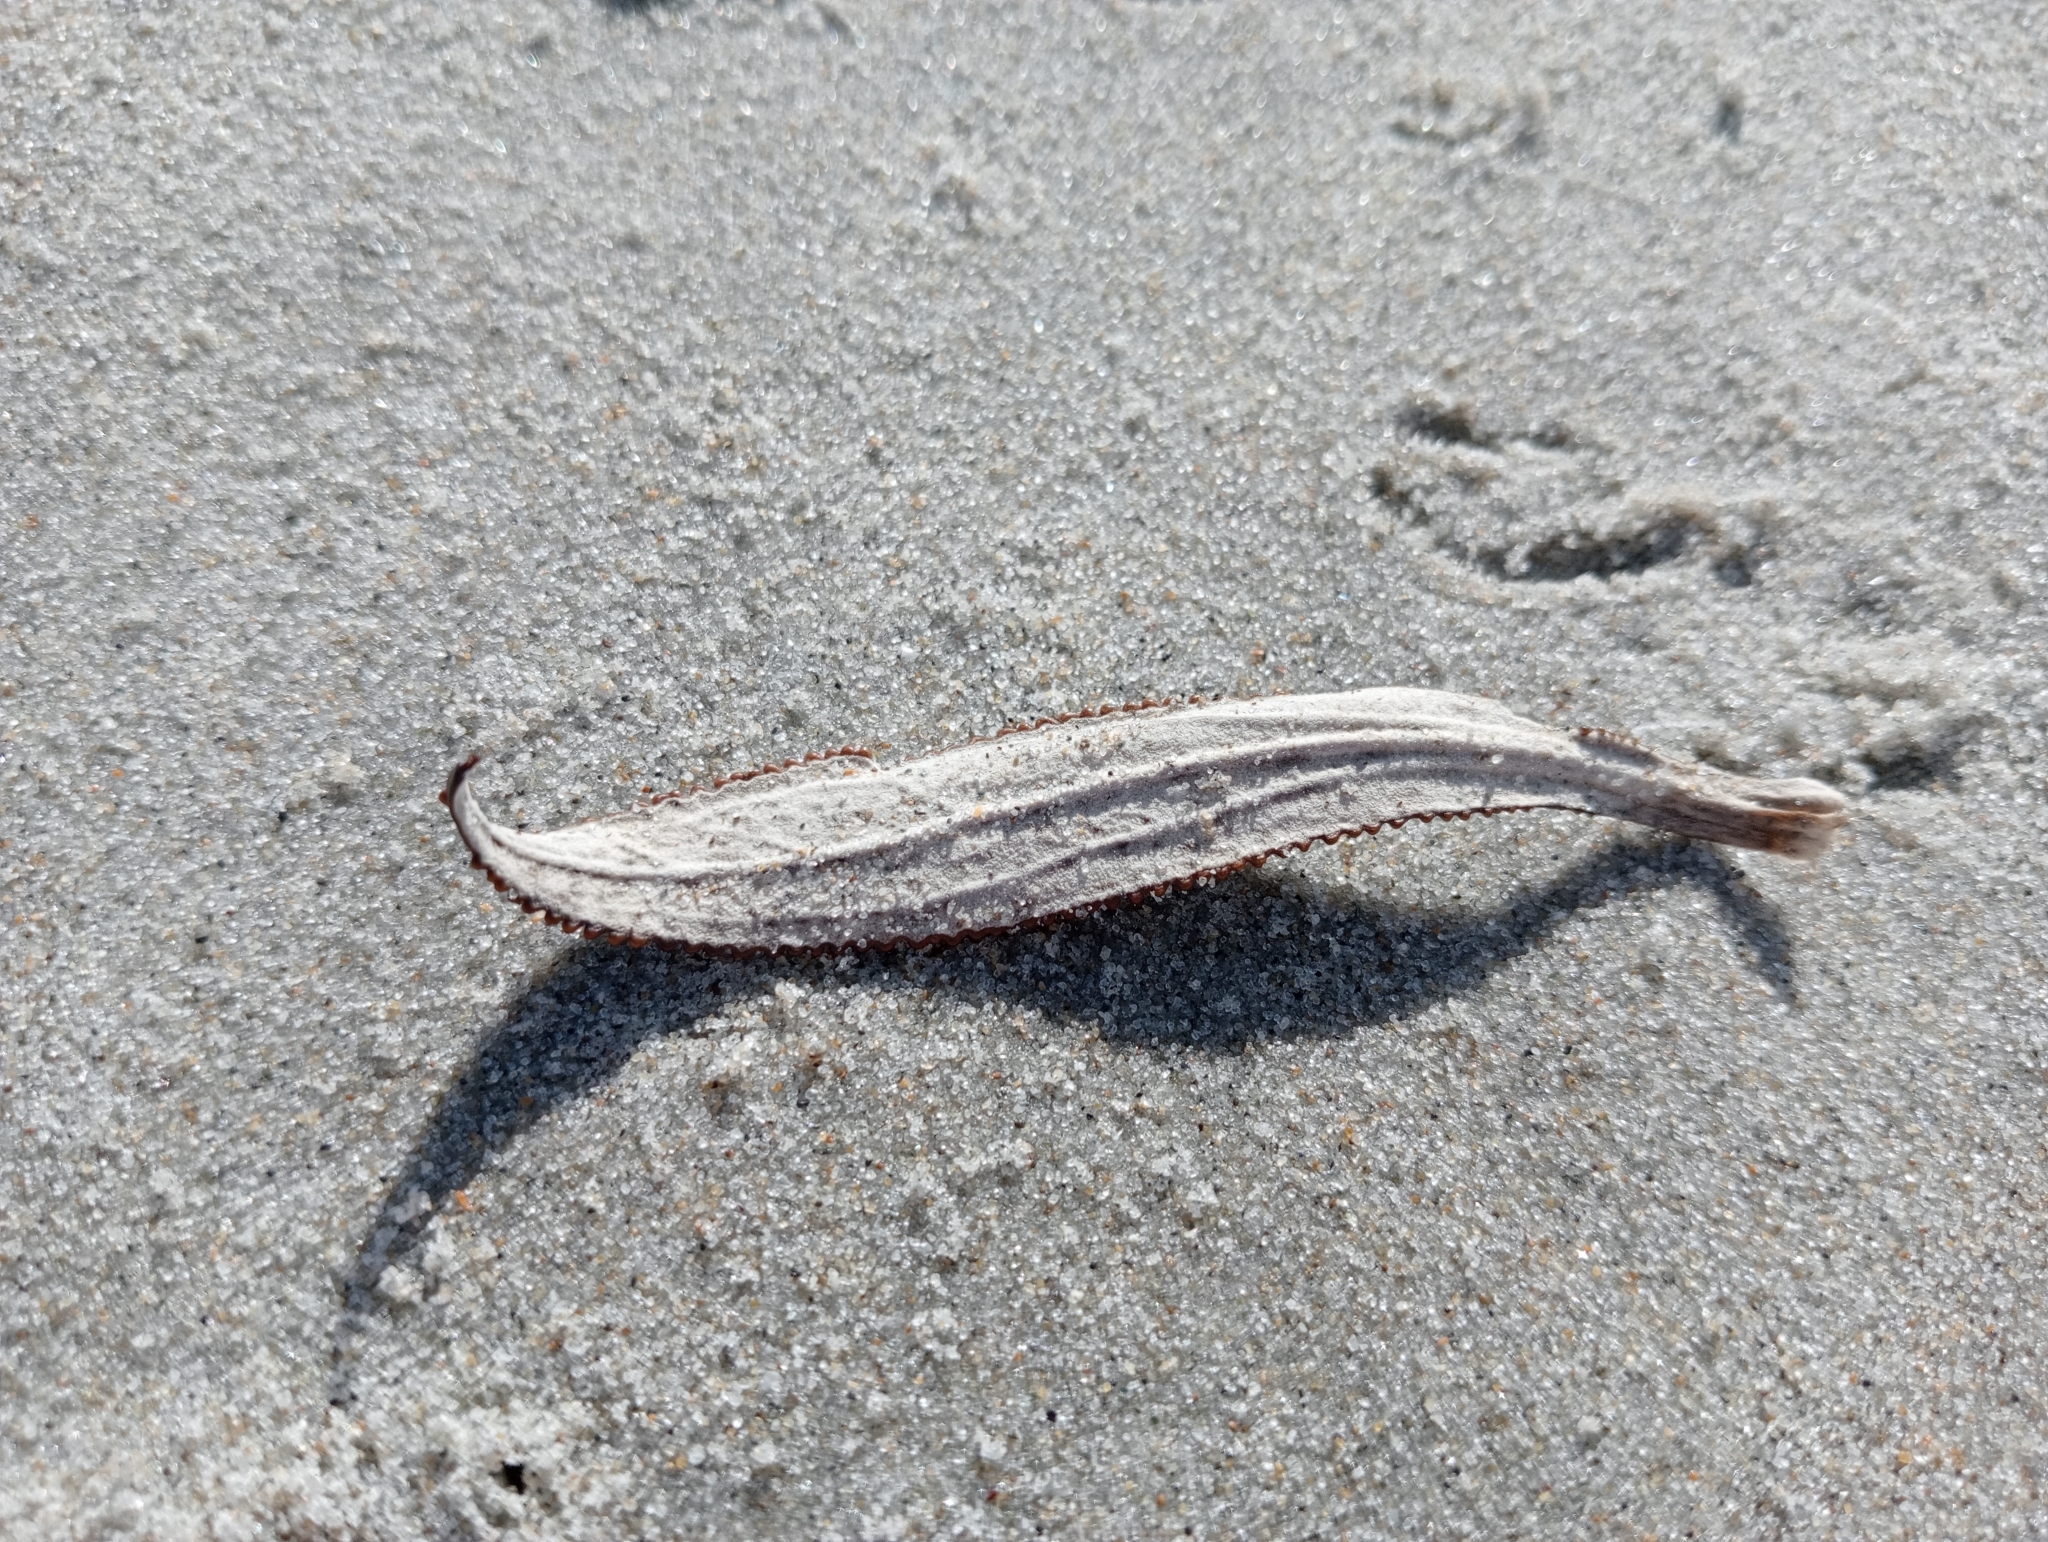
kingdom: Plantae
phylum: Tracheophyta
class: Magnoliopsida
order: Asterales
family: Asteraceae
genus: Macrolearia
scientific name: Macrolearia angustifolia
